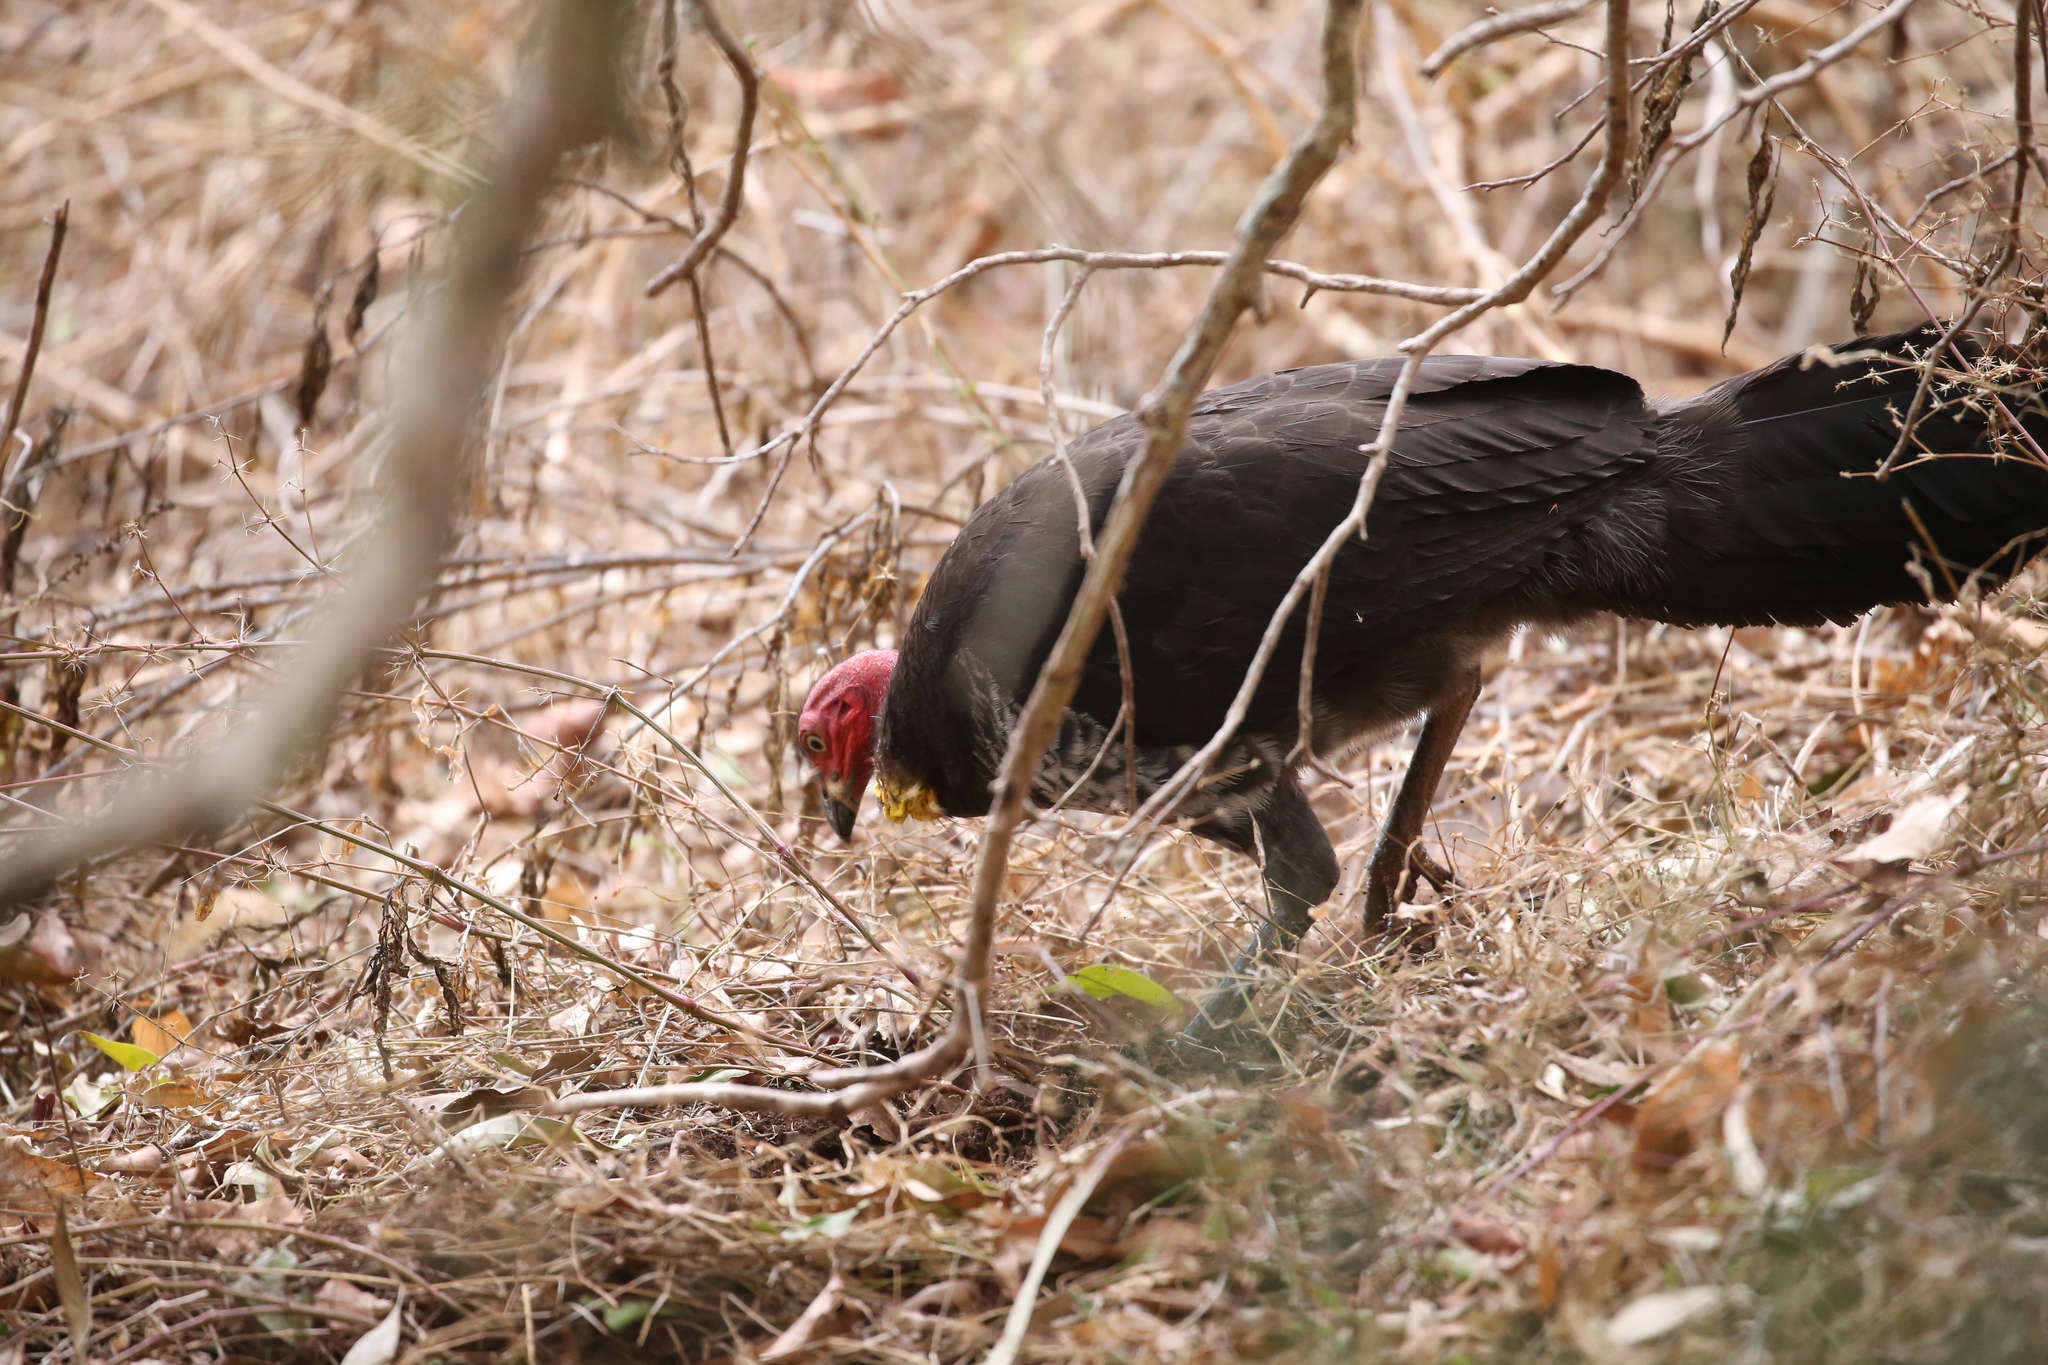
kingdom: Animalia
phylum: Chordata
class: Aves
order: Galliformes
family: Megapodiidae
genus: Alectura
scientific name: Alectura lathami
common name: Australian brushturkey
